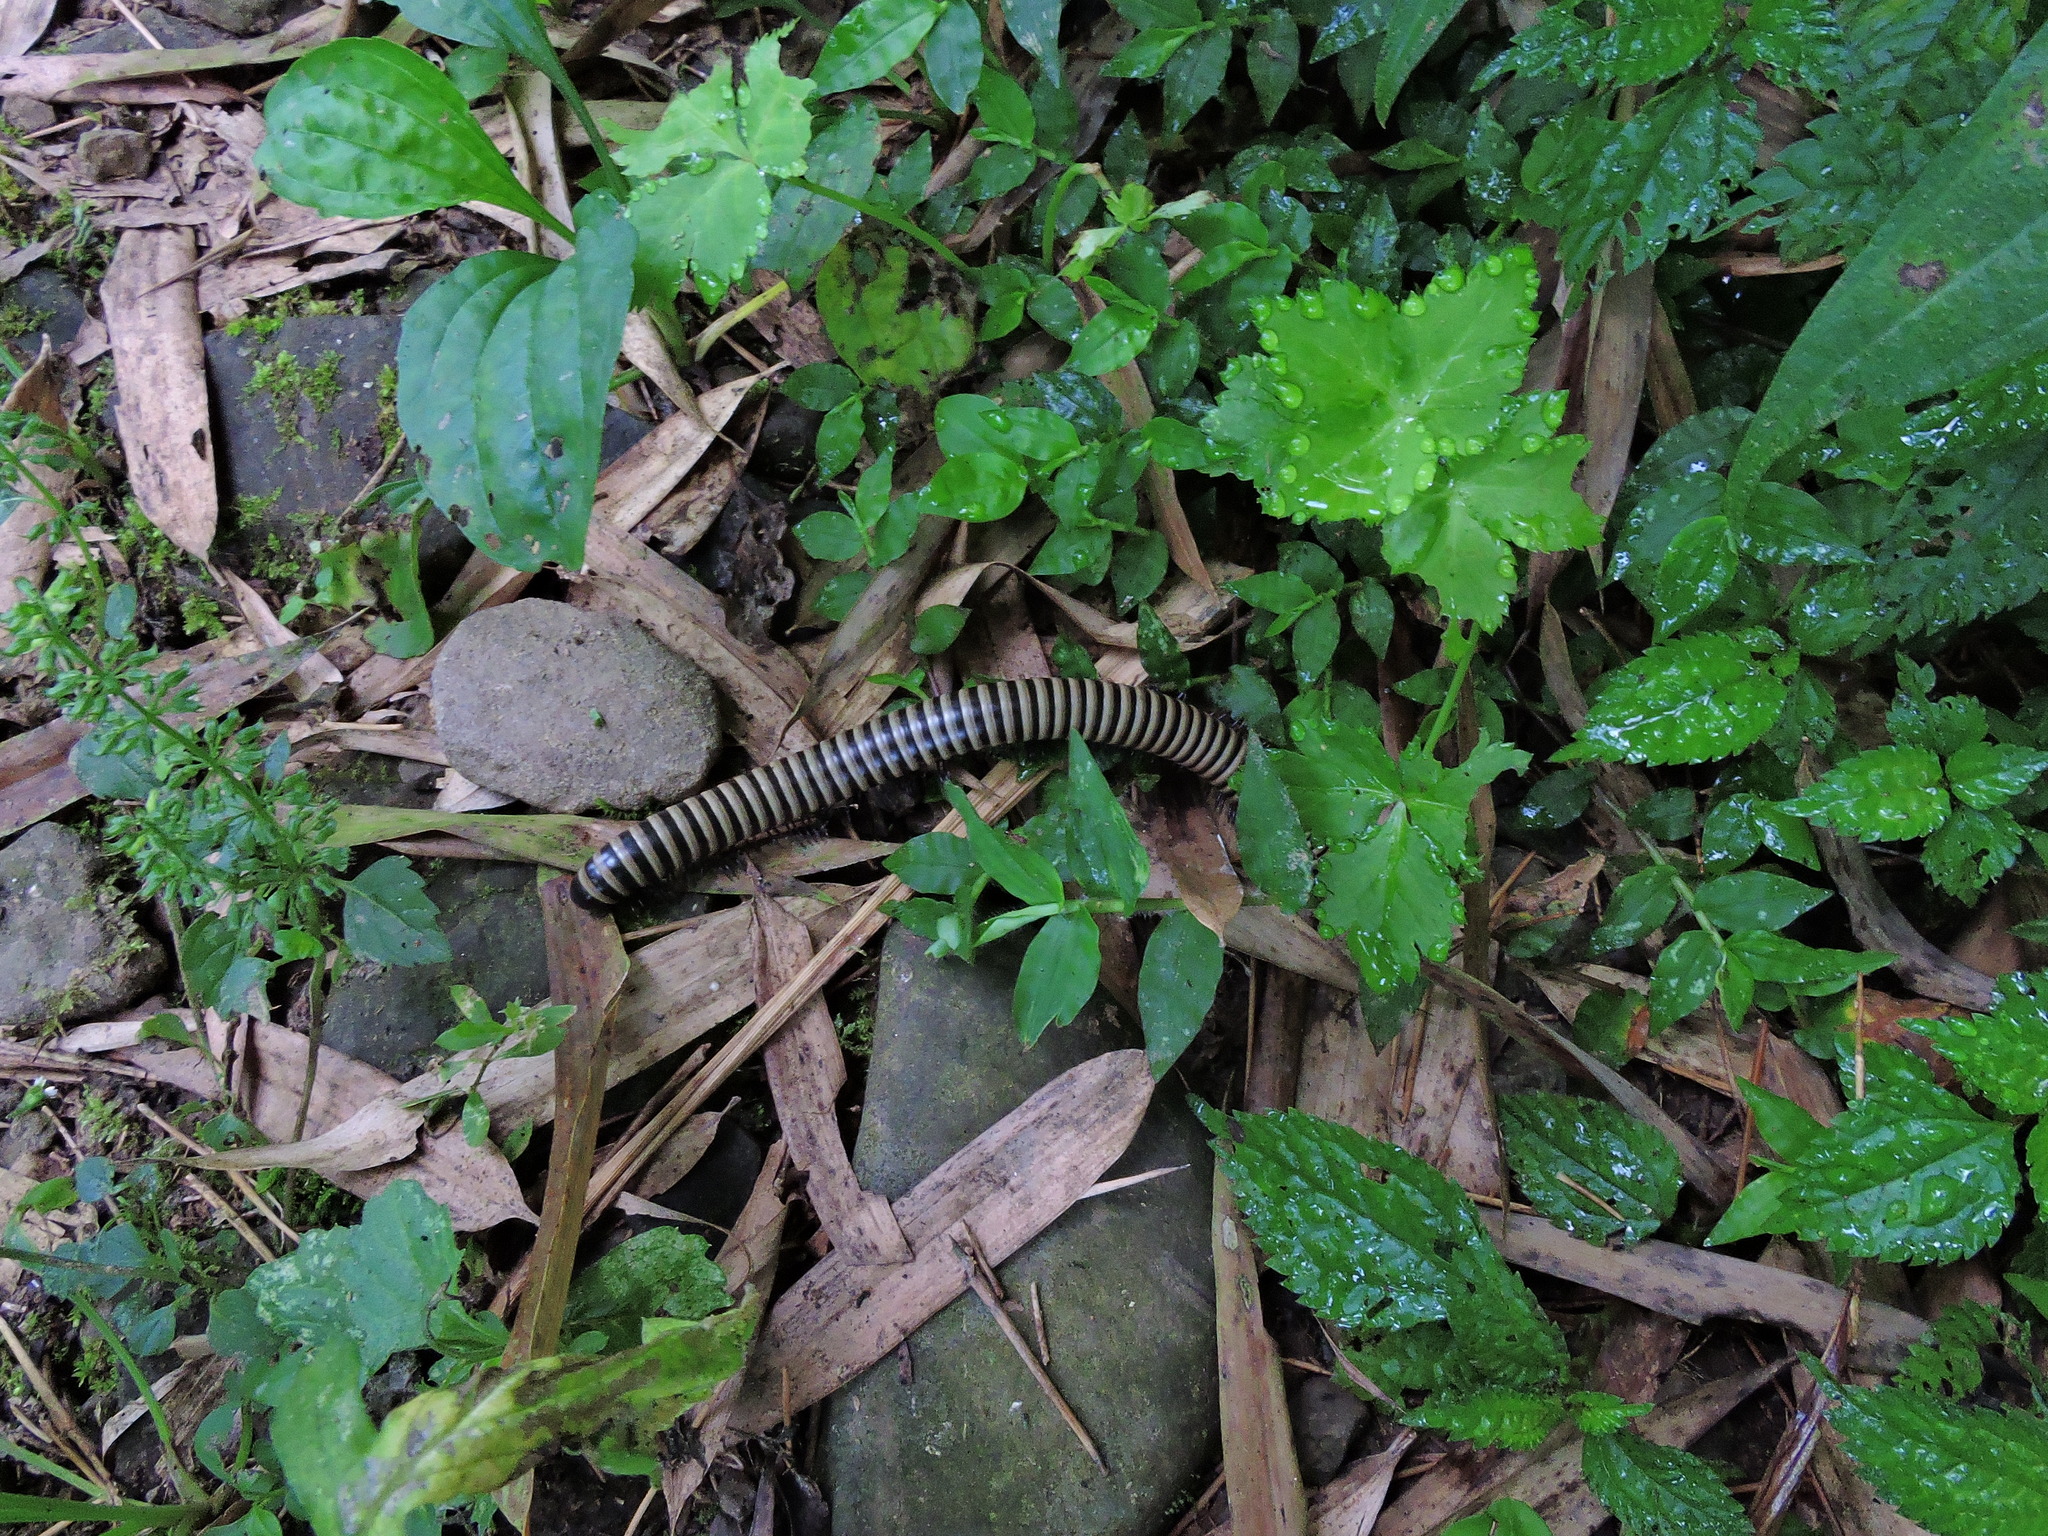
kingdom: Animalia
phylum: Arthropoda
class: Diplopoda
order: Spirobolida
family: Spirobolidae
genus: Spirobolus
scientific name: Spirobolus
